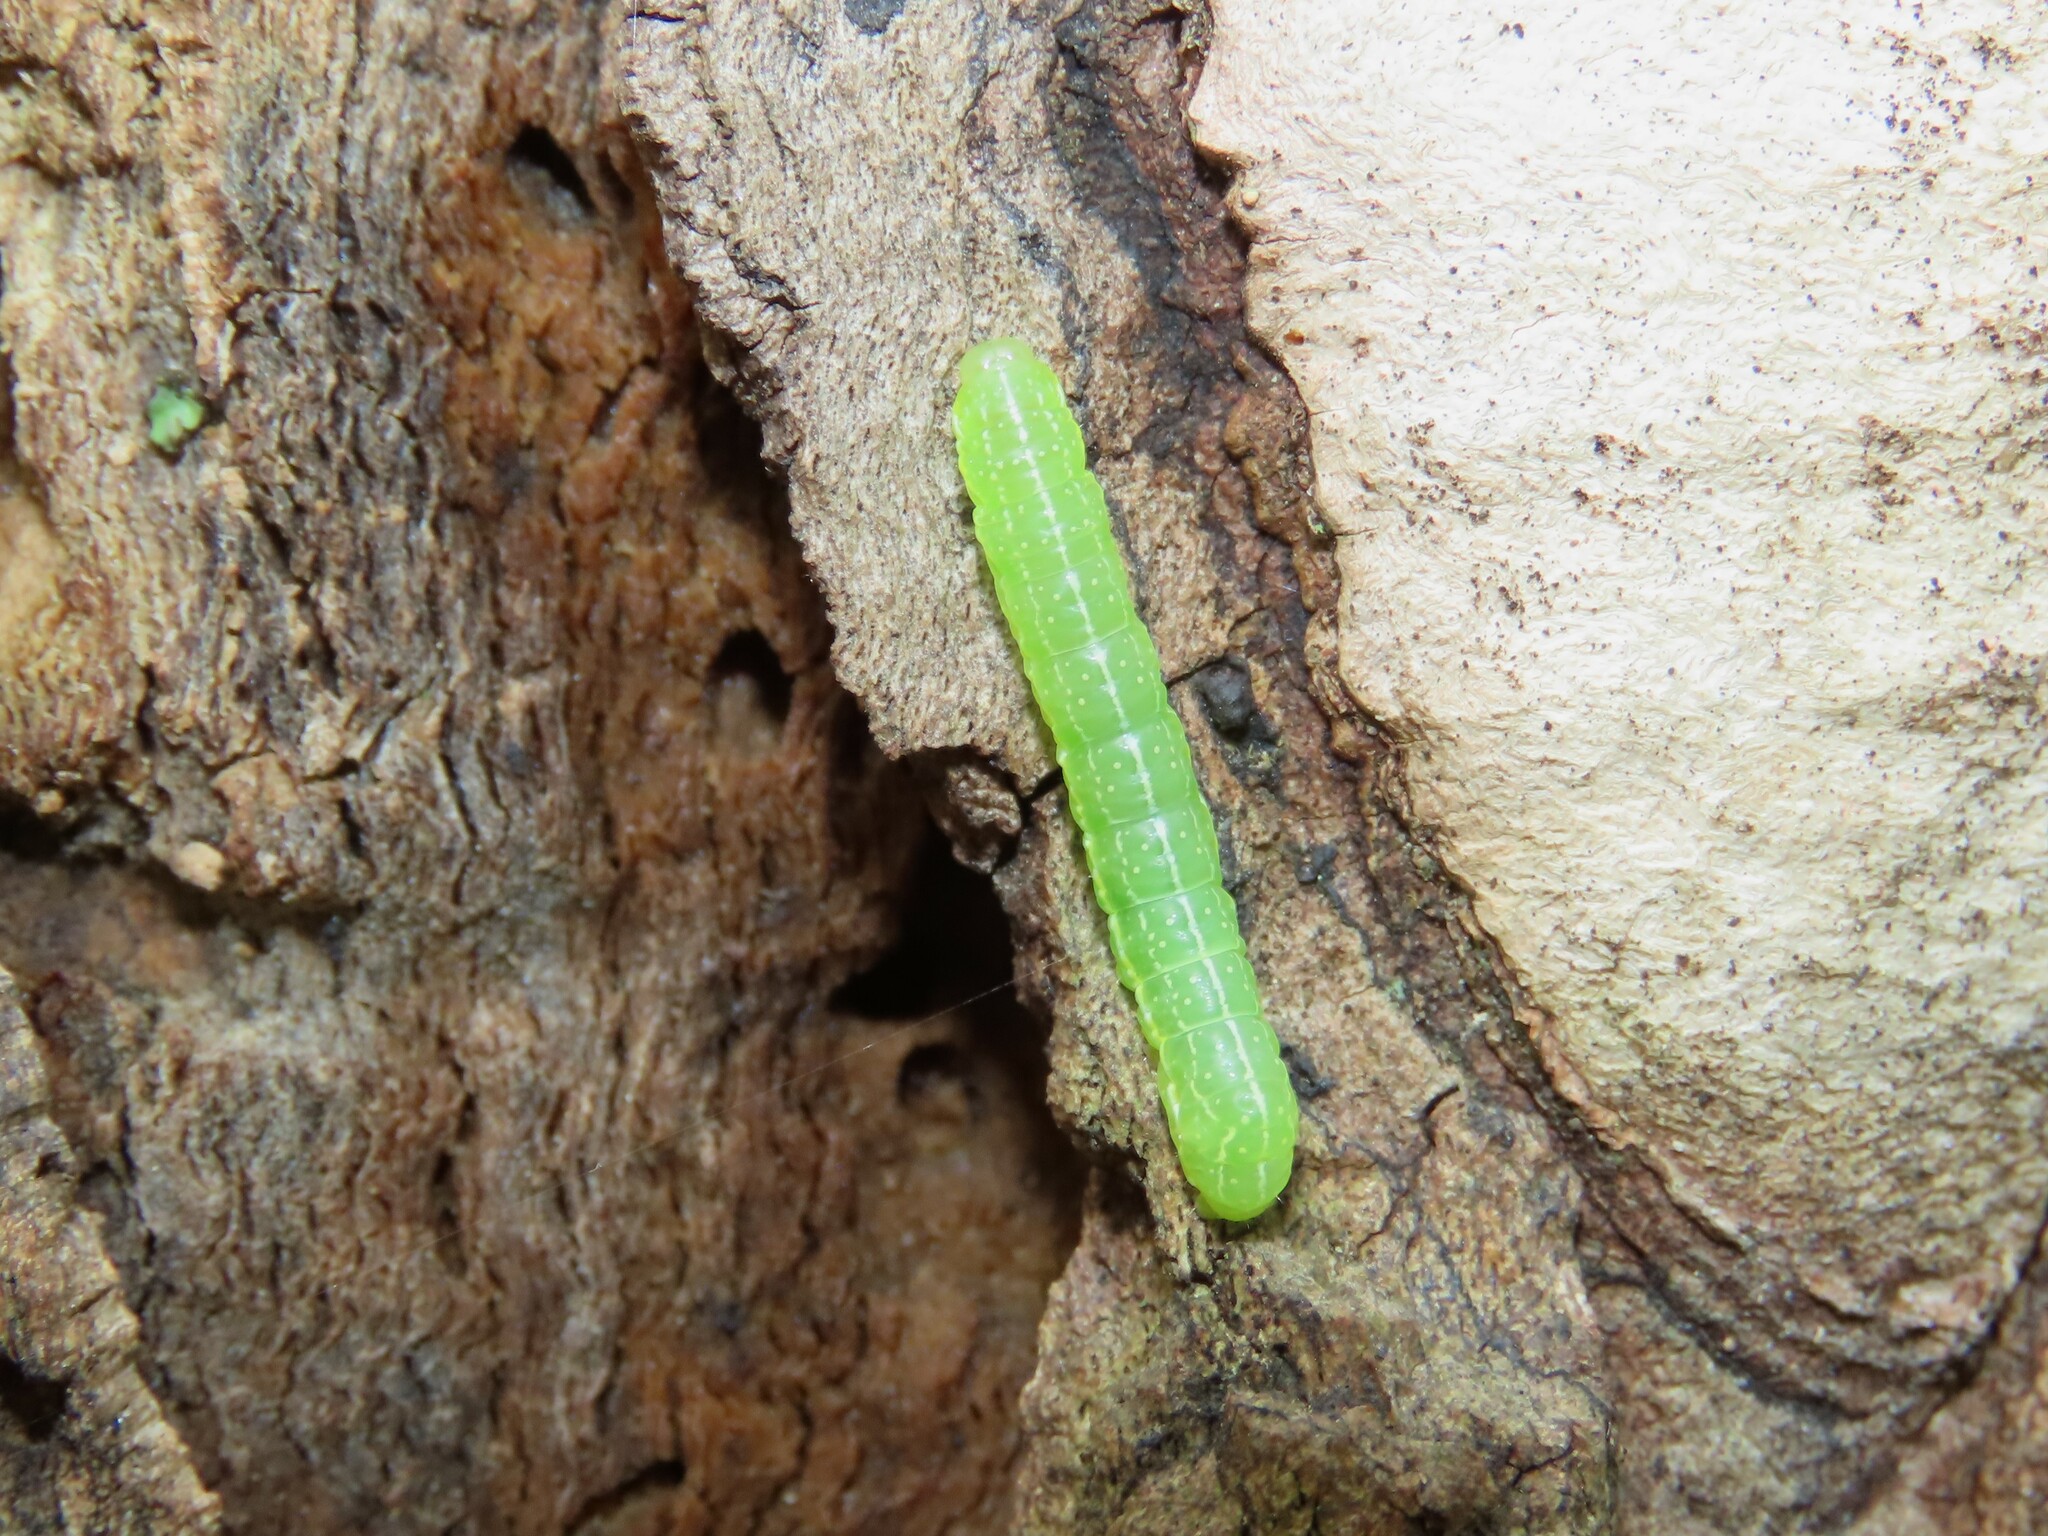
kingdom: Animalia
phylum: Arthropoda
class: Insecta
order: Lepidoptera
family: Noctuidae
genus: Amphipyra
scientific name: Amphipyra pyramidoides
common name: American copper underwing
